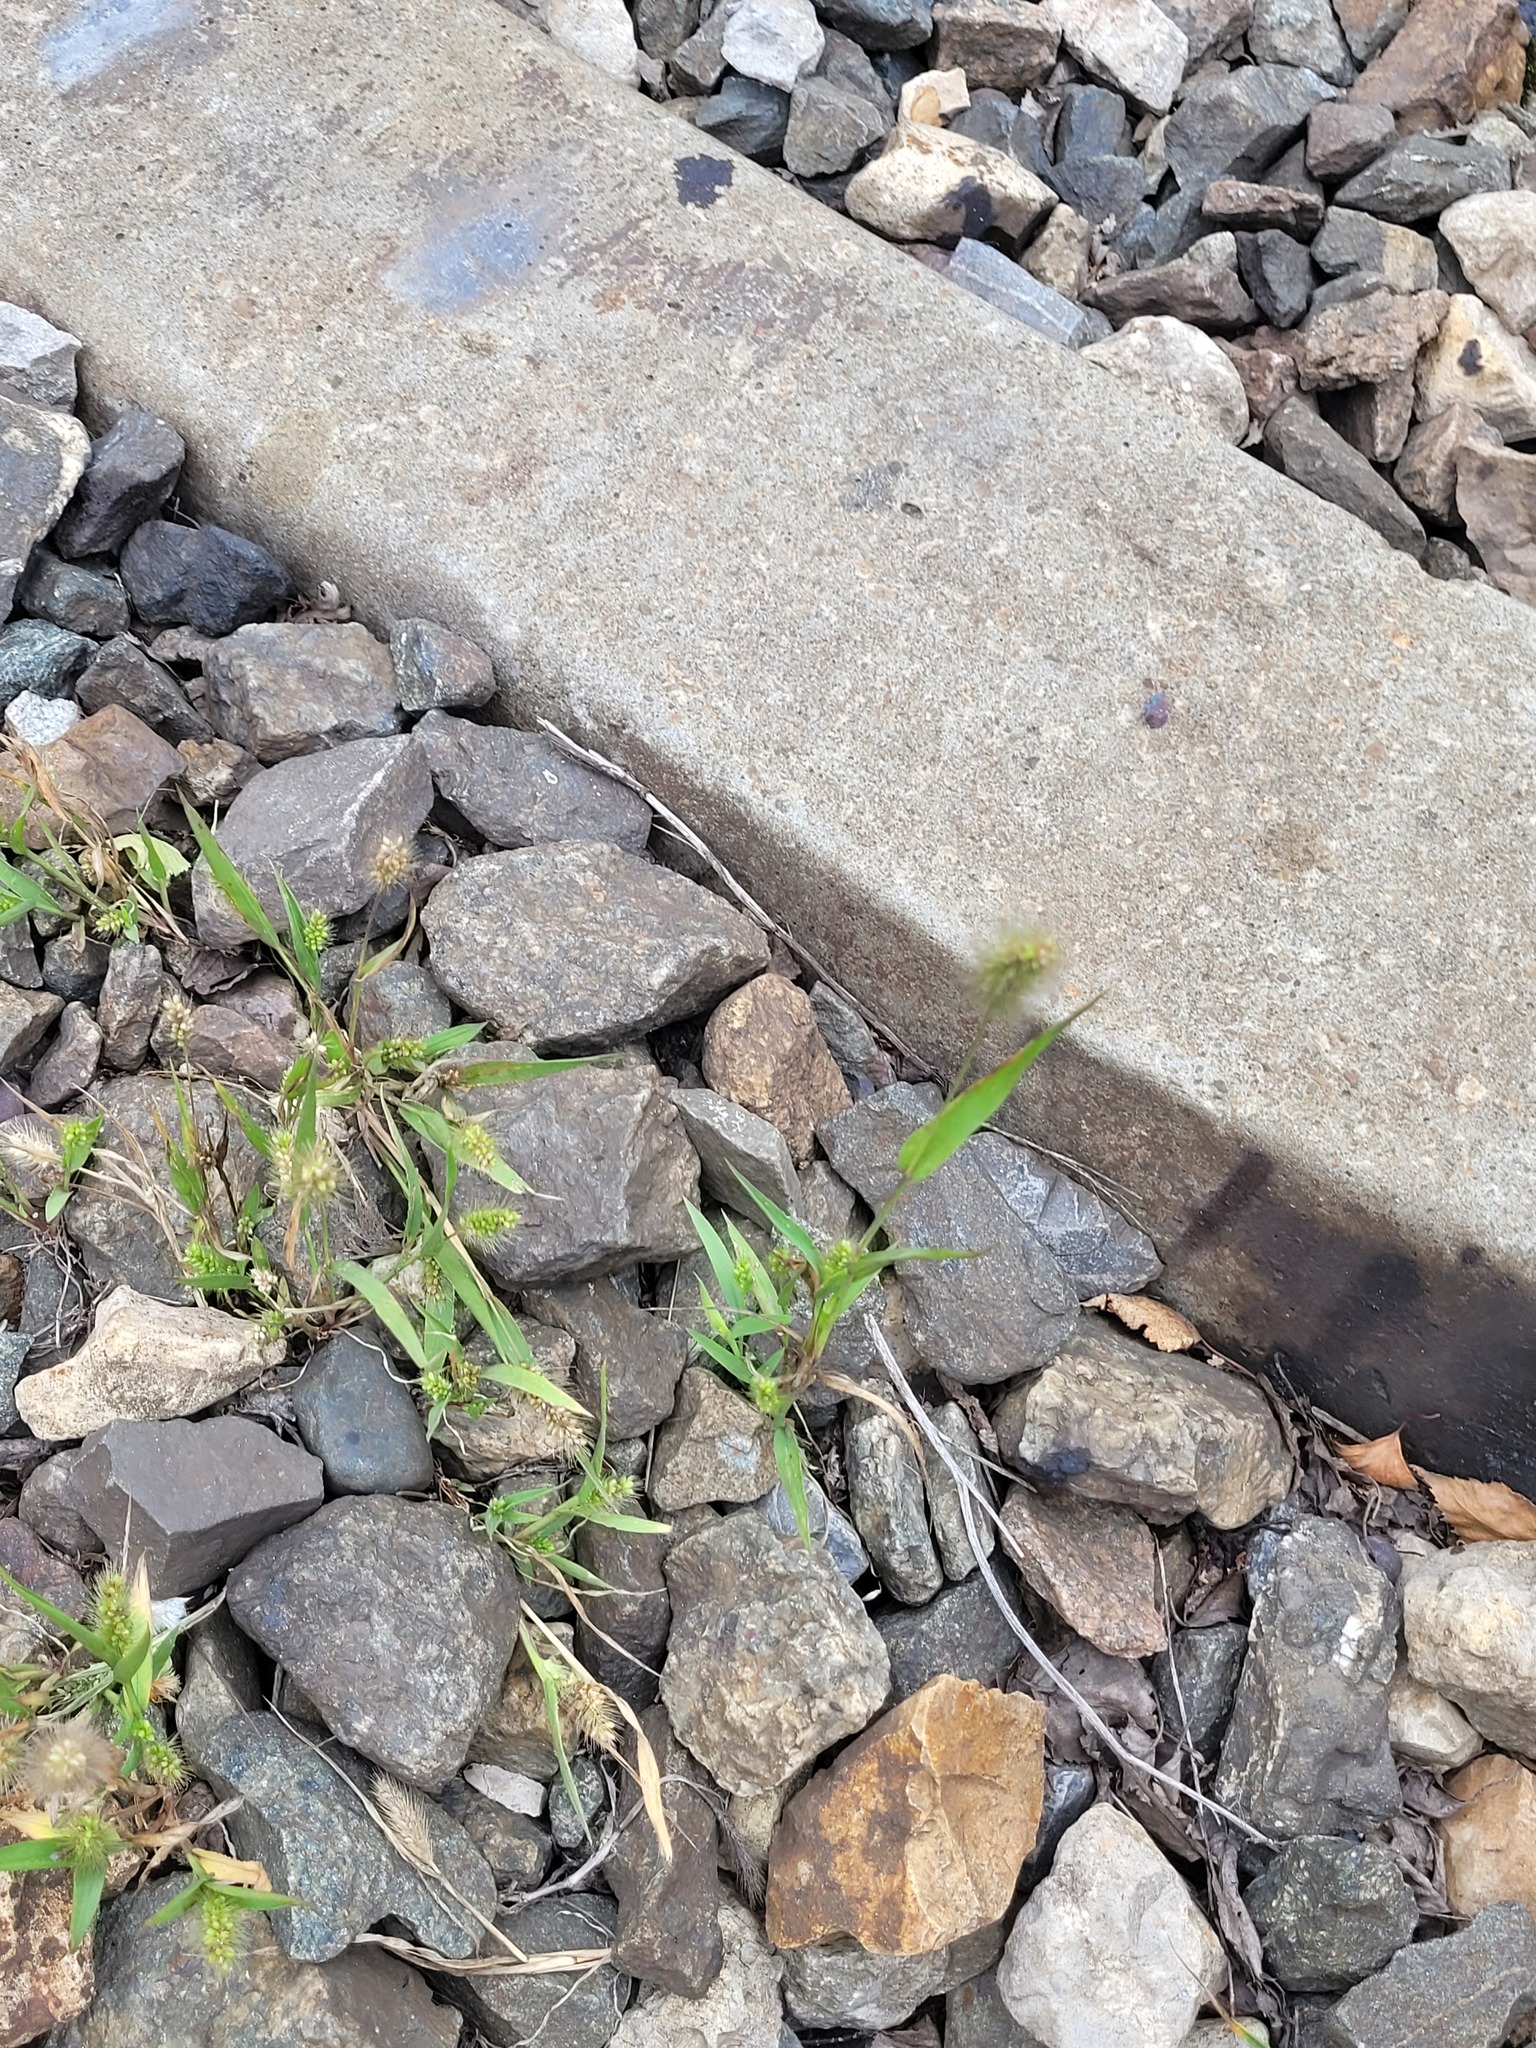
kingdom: Plantae
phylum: Tracheophyta
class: Liliopsida
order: Poales
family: Poaceae
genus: Setaria
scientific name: Setaria viridis
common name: Green bristlegrass
